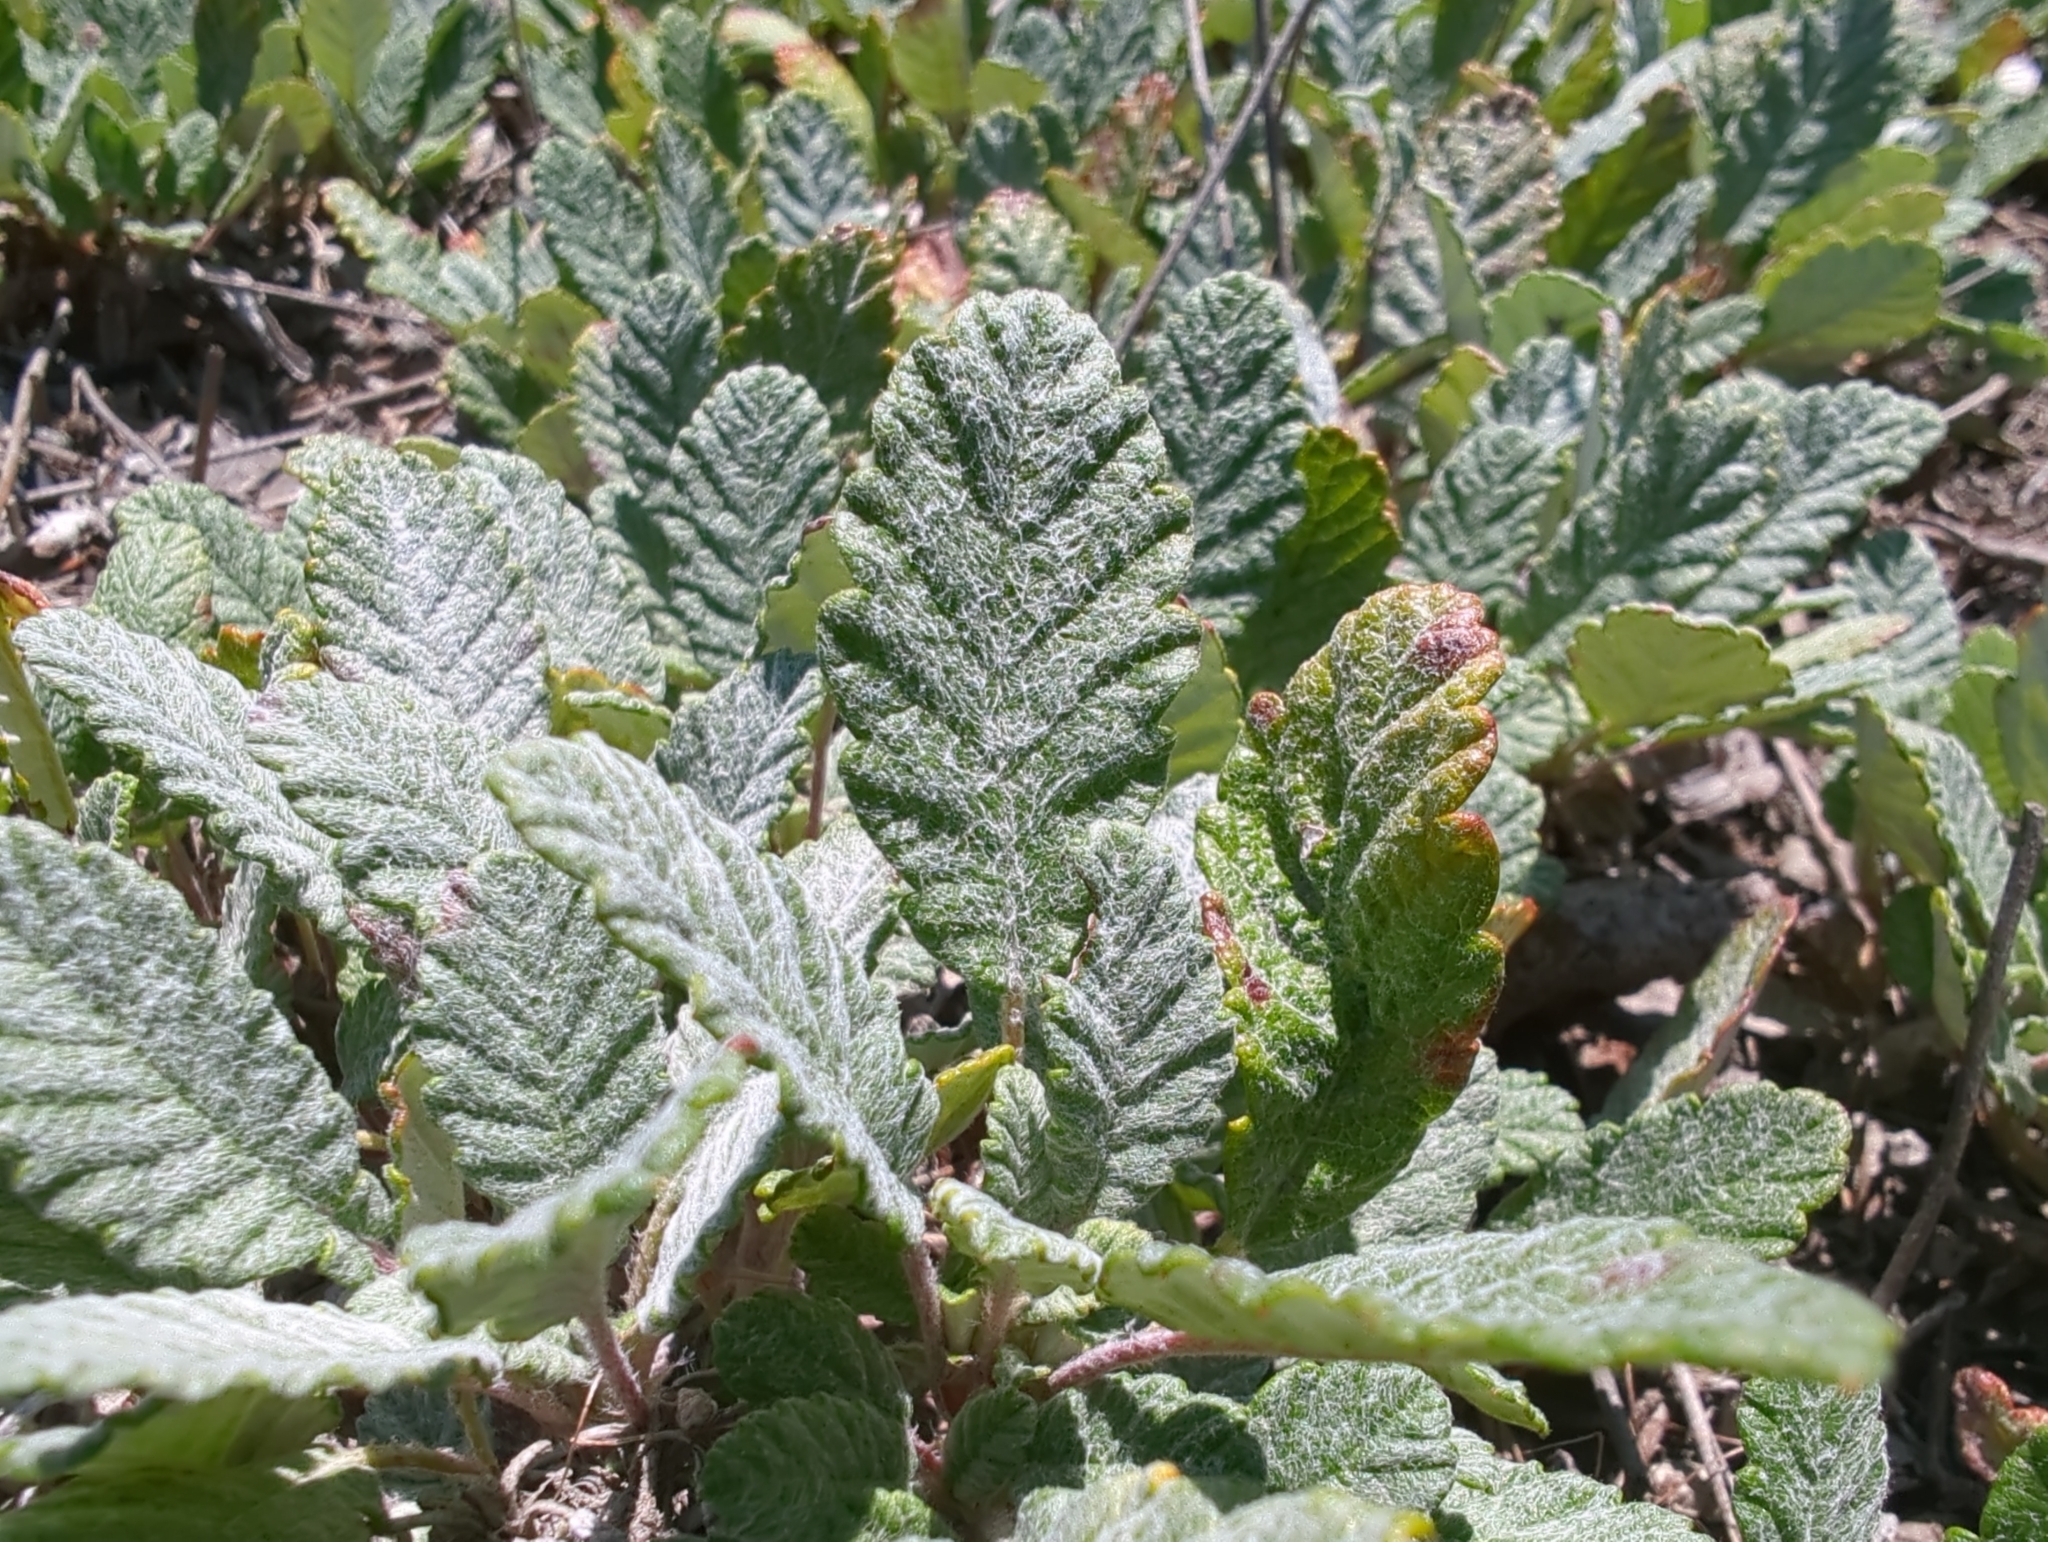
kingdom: Plantae
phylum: Tracheophyta
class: Magnoliopsida
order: Rosales
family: Rosaceae
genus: Dryas
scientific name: Dryas drummondii
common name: Drummond's dryad
